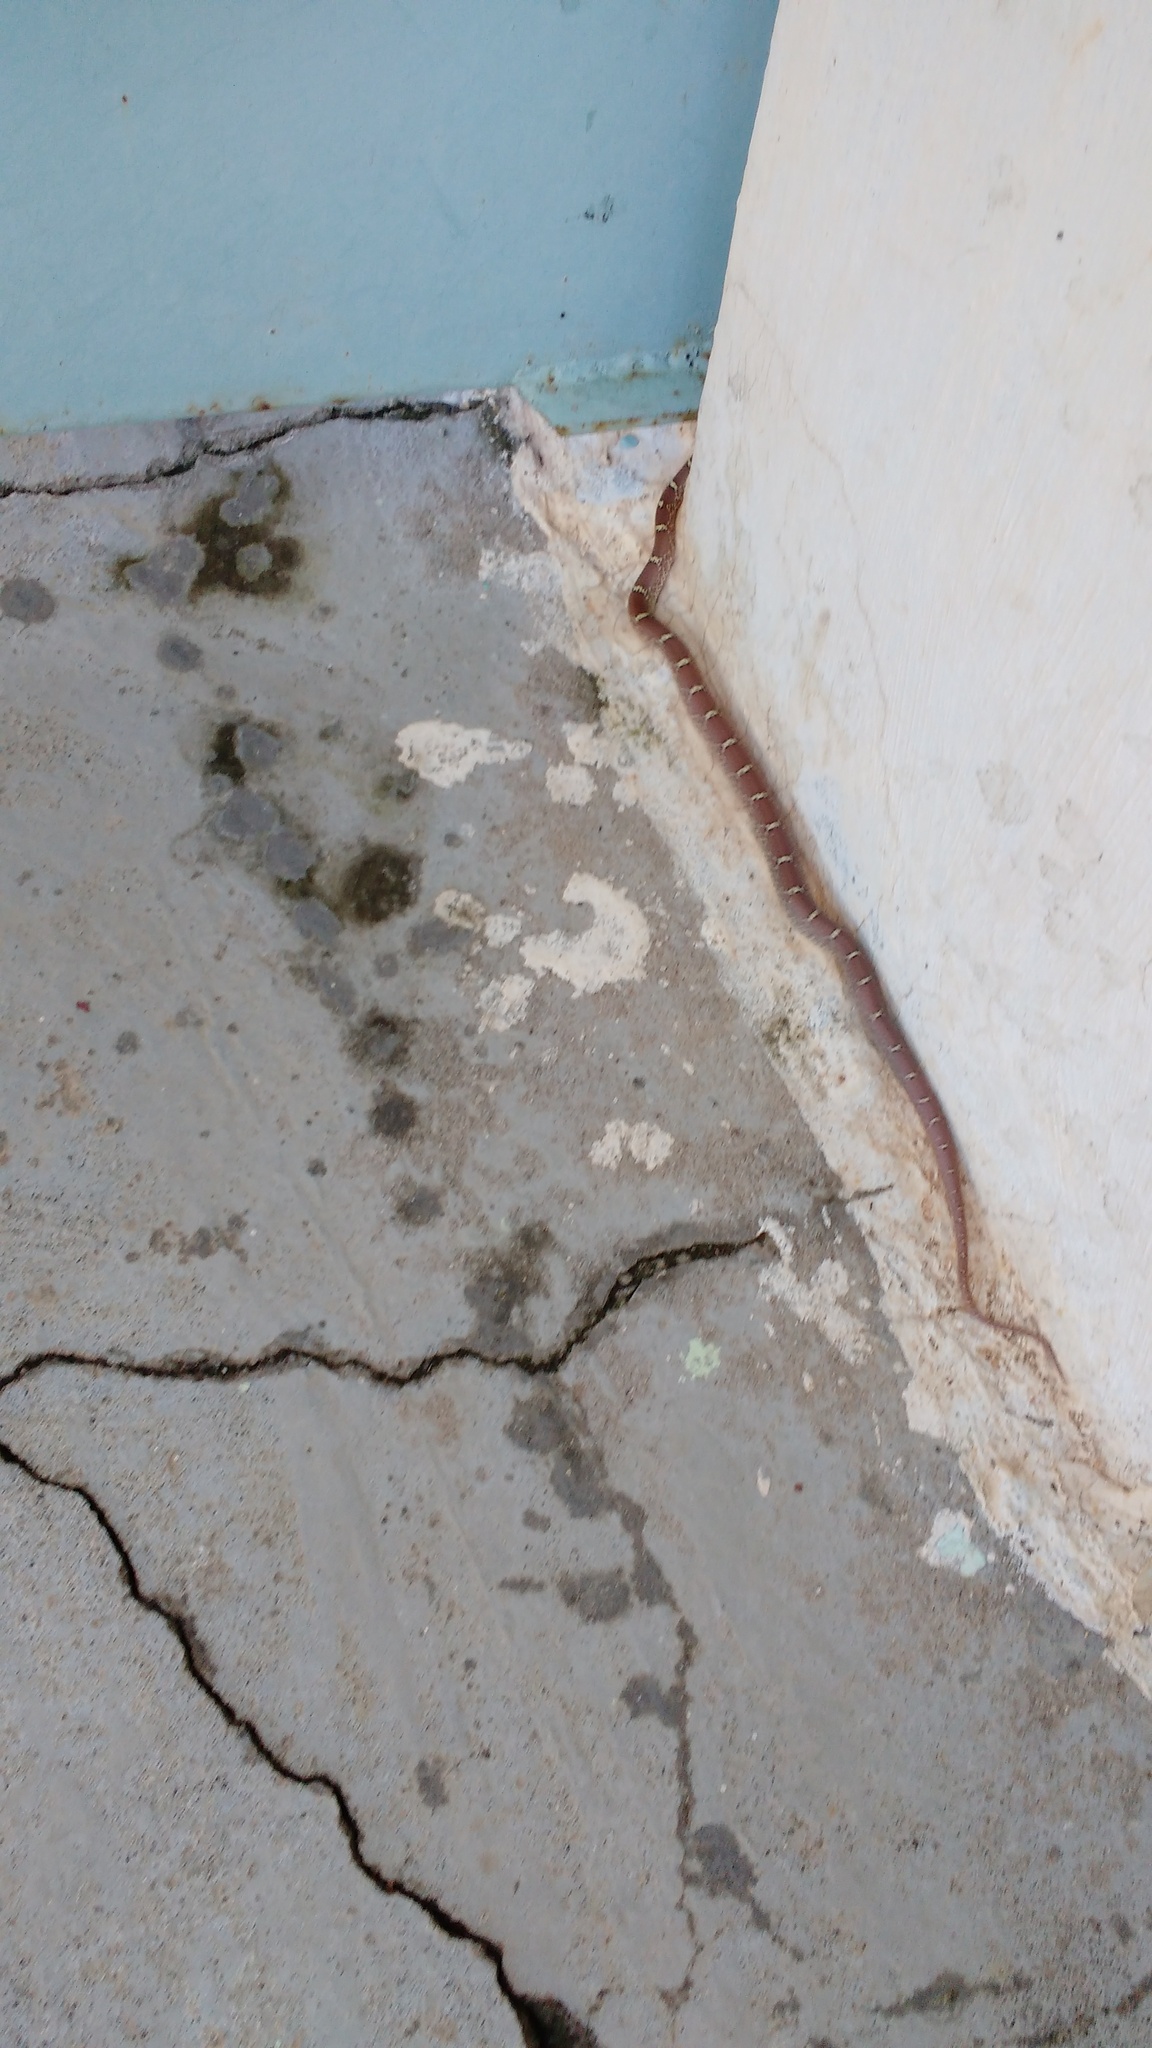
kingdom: Animalia
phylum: Chordata
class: Squamata
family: Colubridae
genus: Lycodon
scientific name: Lycodon fasciolatus
